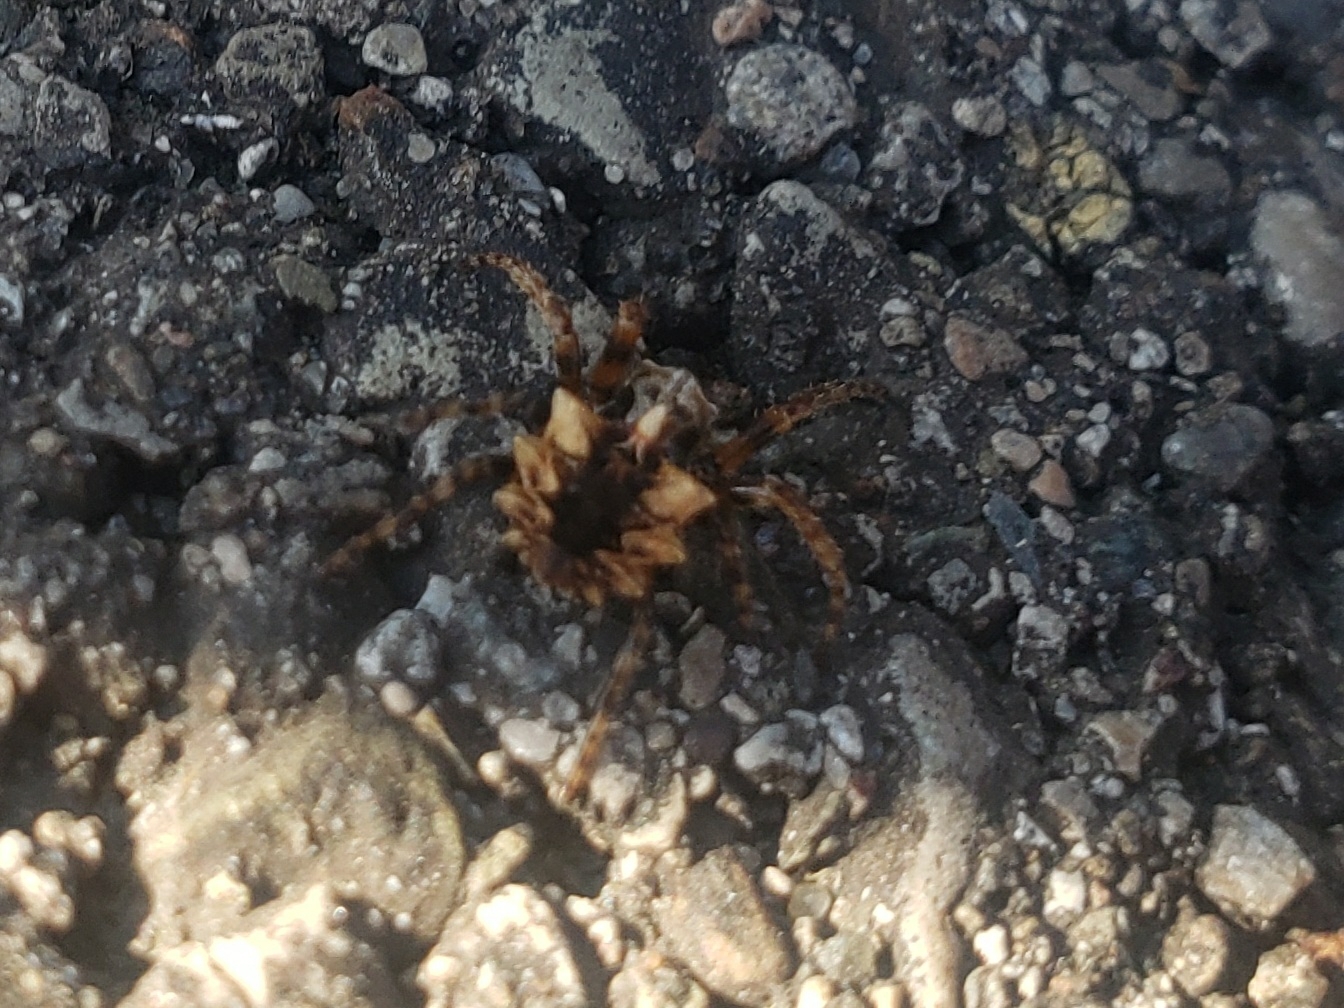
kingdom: Animalia
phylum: Arthropoda
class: Arachnida
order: Araneae
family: Araneidae
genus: Acanthepeira
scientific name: Acanthepeira stellata
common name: Starbellied orbweaver
